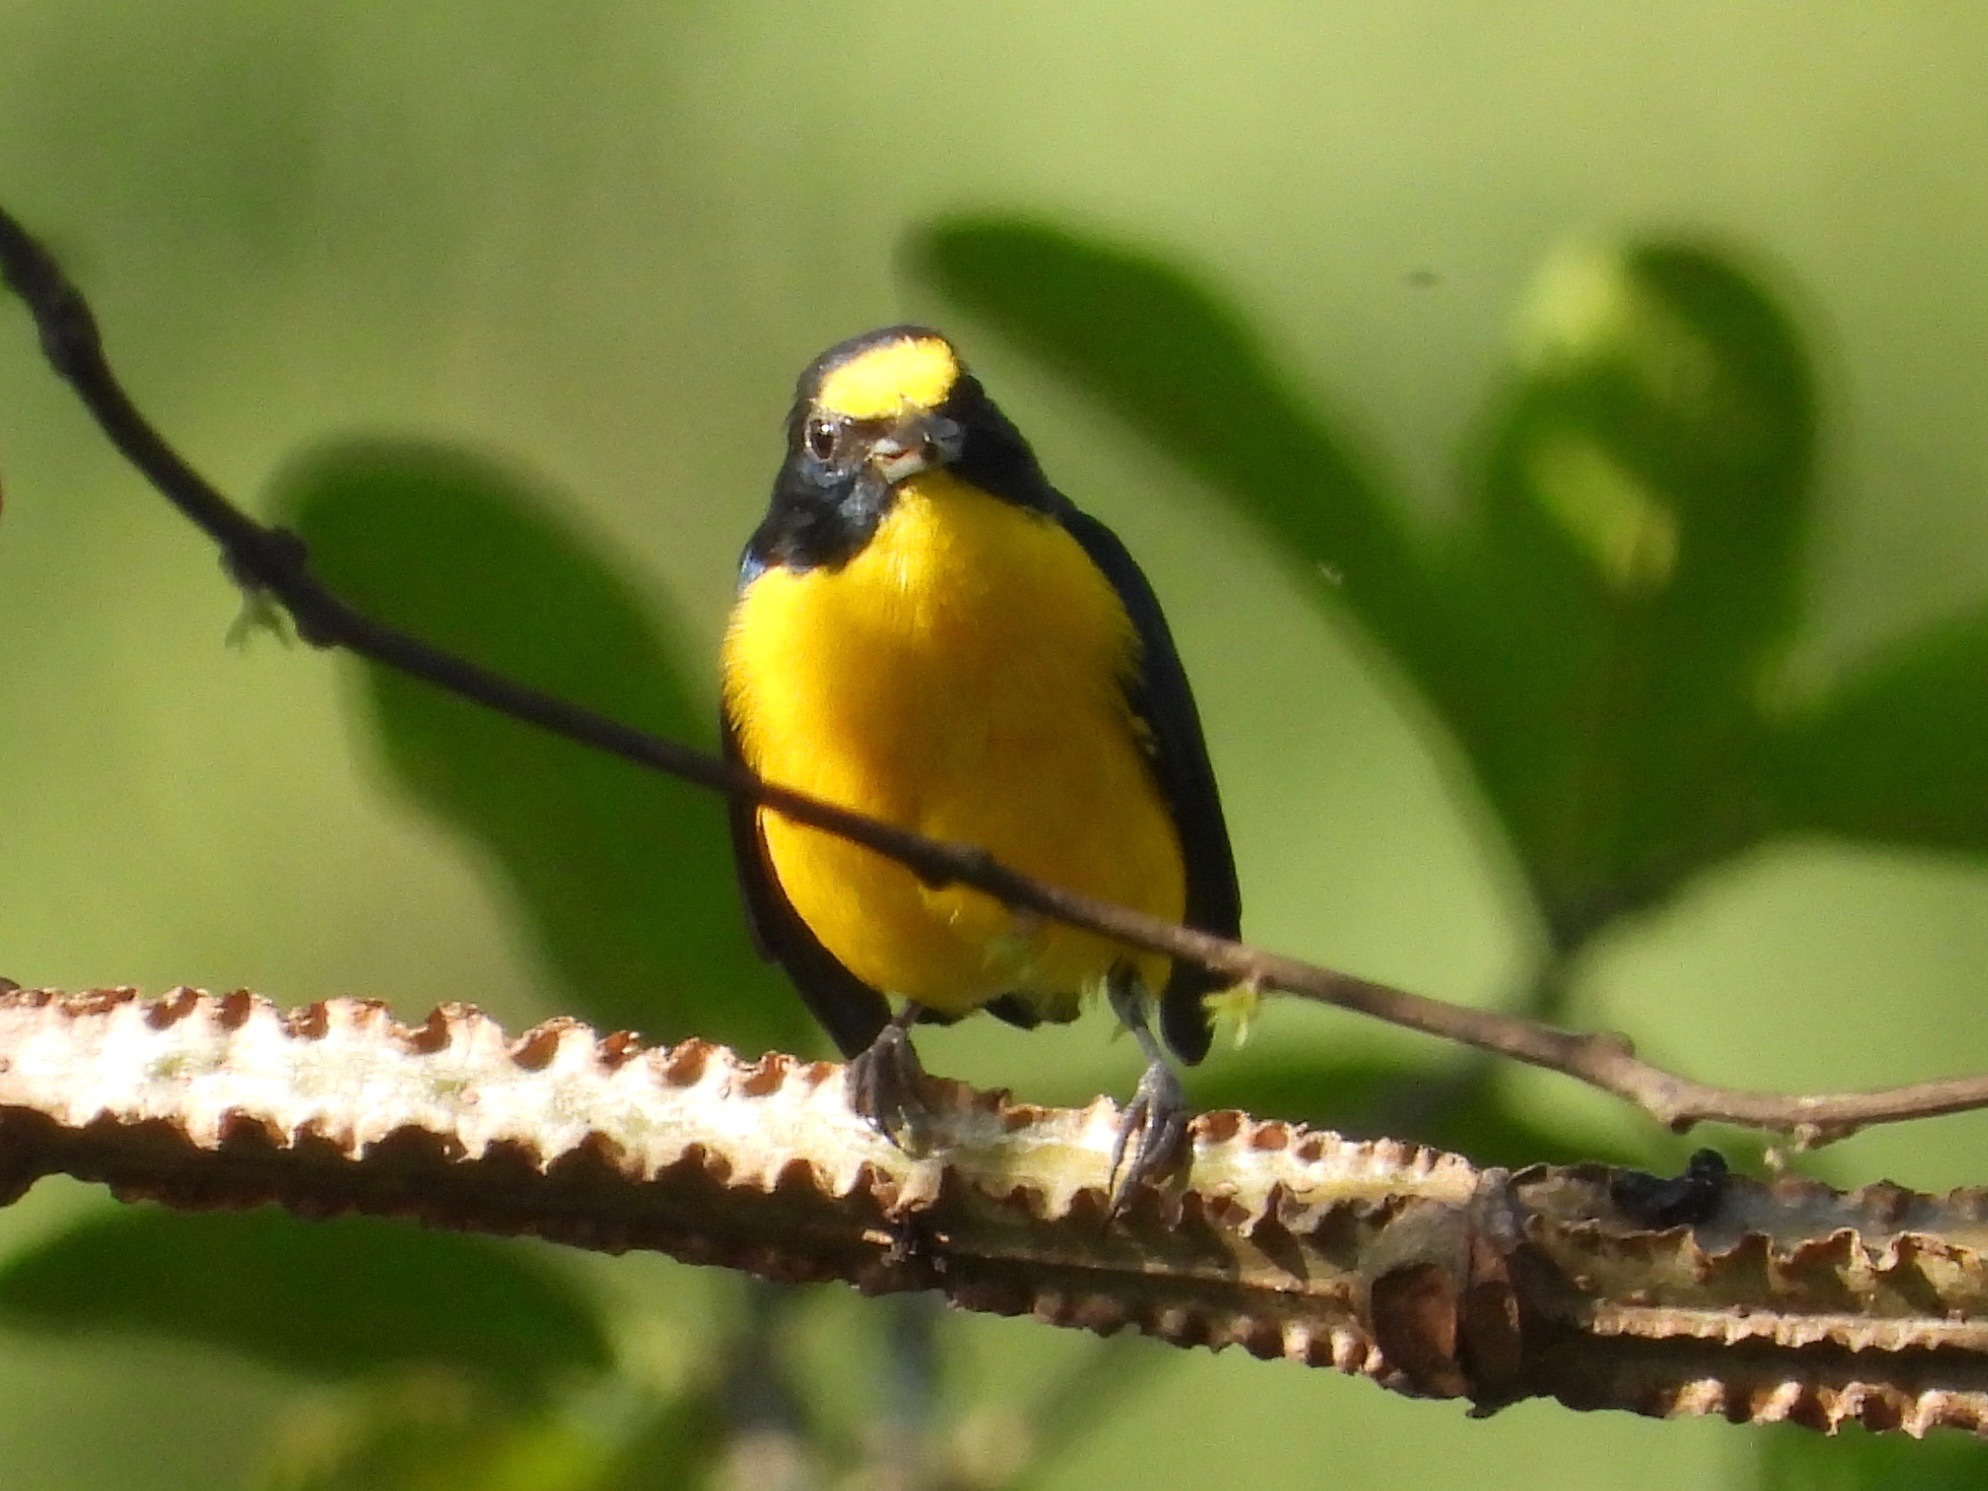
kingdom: Animalia
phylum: Chordata
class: Aves
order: Passeriformes
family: Fringillidae
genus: Euphonia
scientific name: Euphonia hirundinacea
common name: Yellow-throated euphonia
